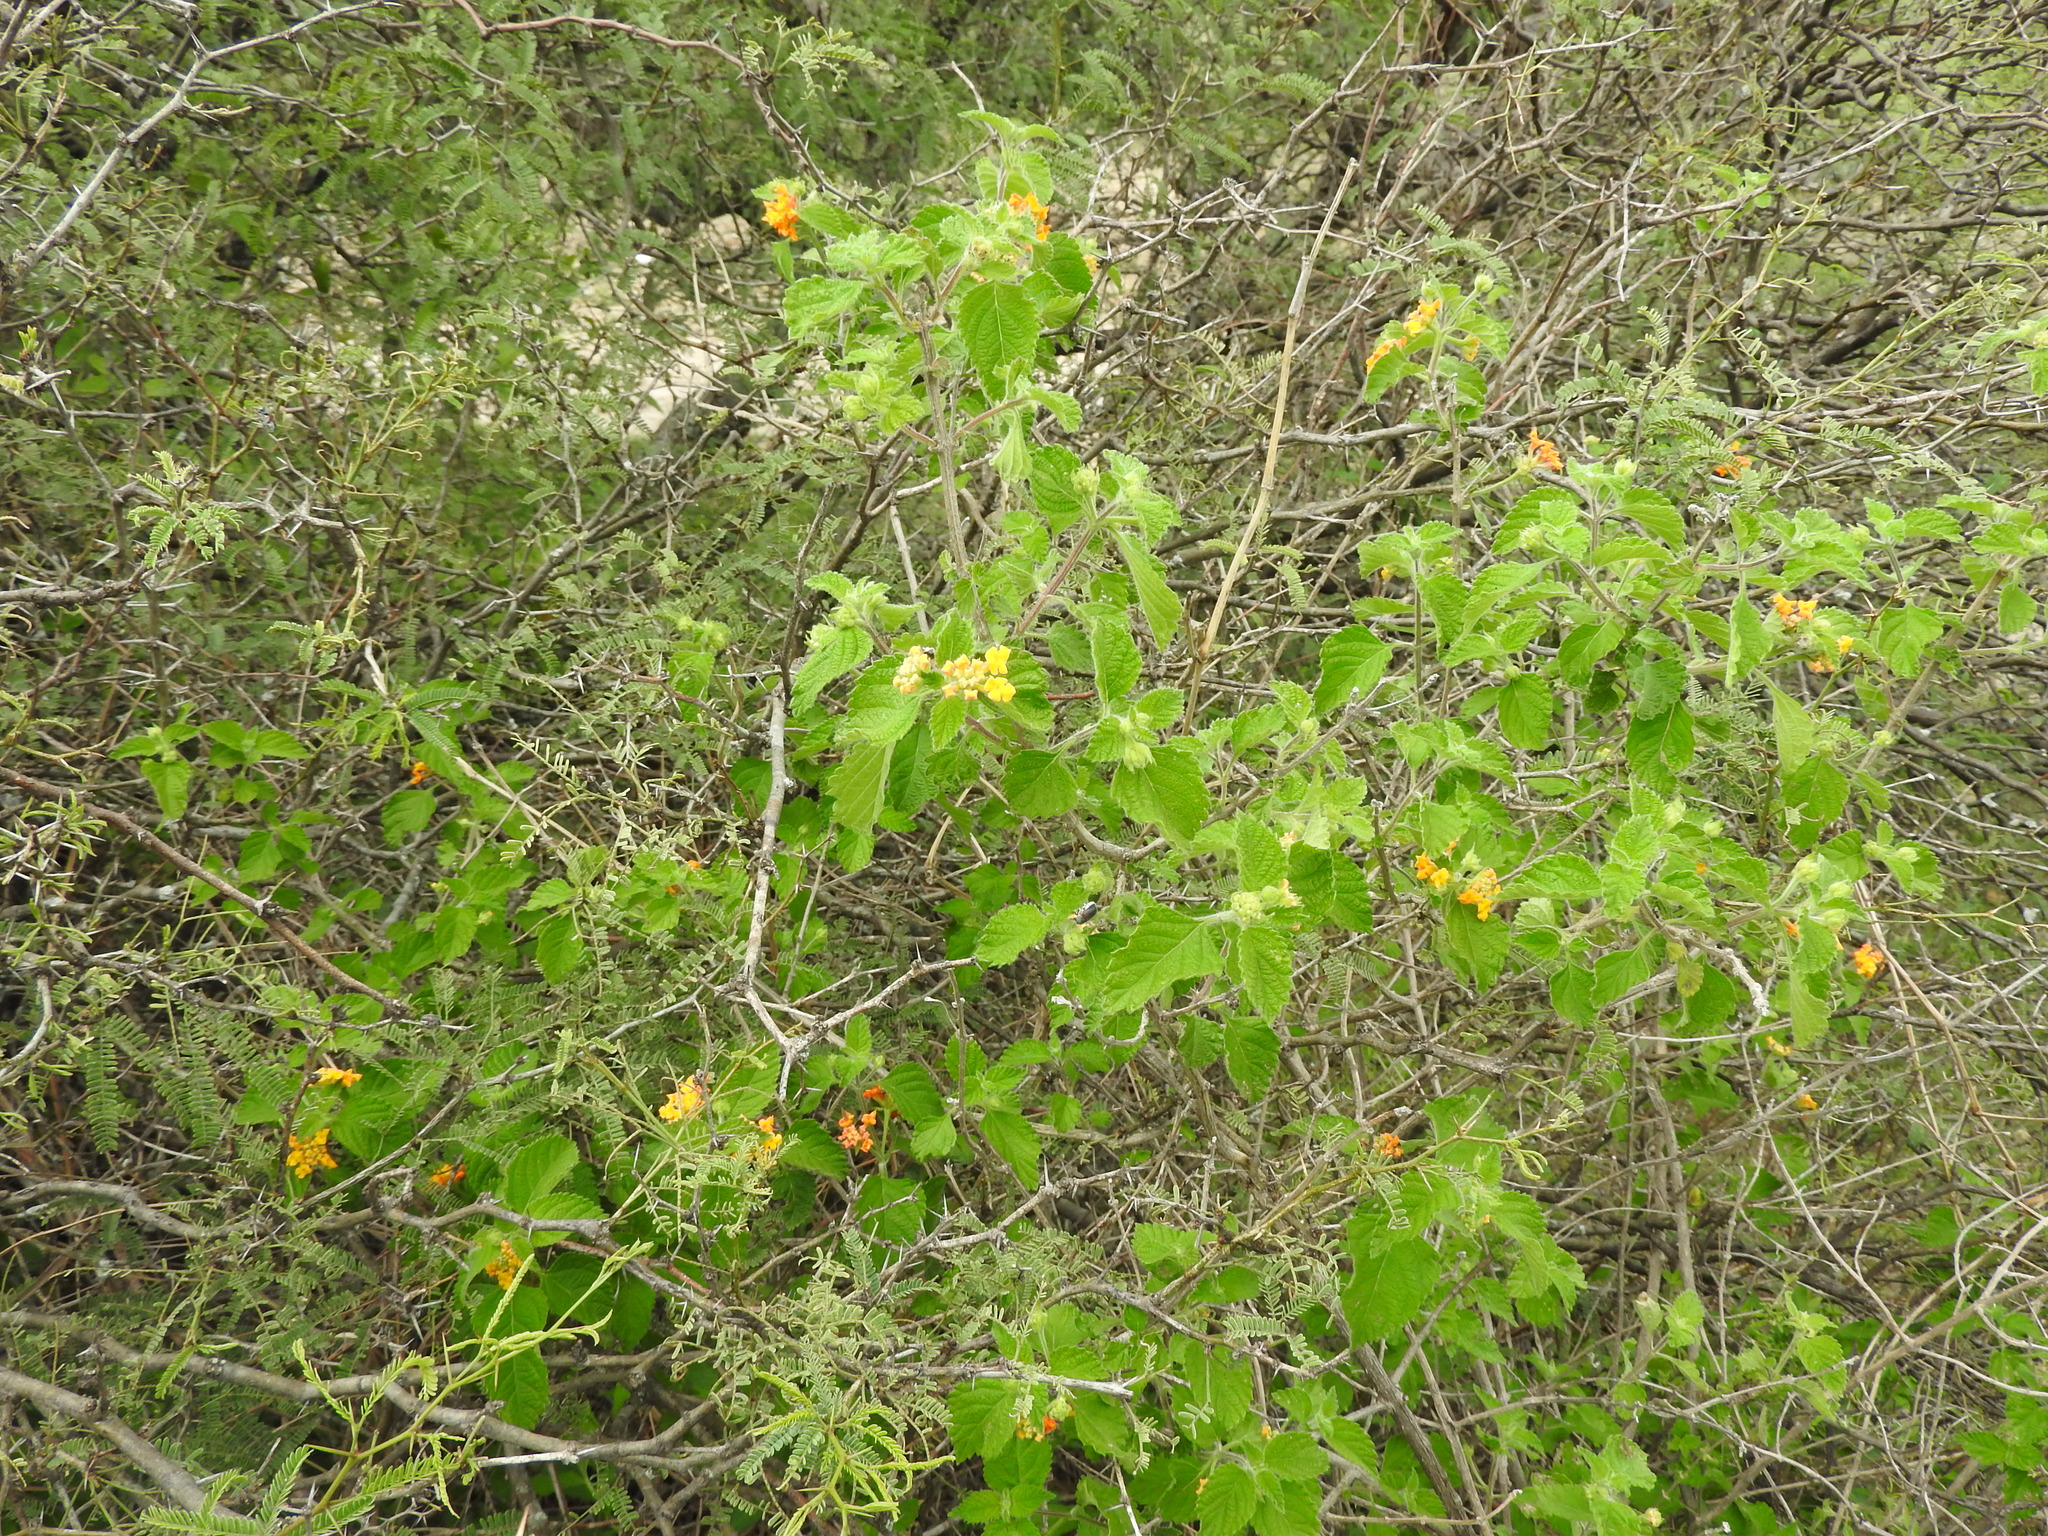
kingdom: Plantae
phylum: Tracheophyta
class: Magnoliopsida
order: Lamiales
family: Verbenaceae
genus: Lantana
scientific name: Lantana camara
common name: Lantana
